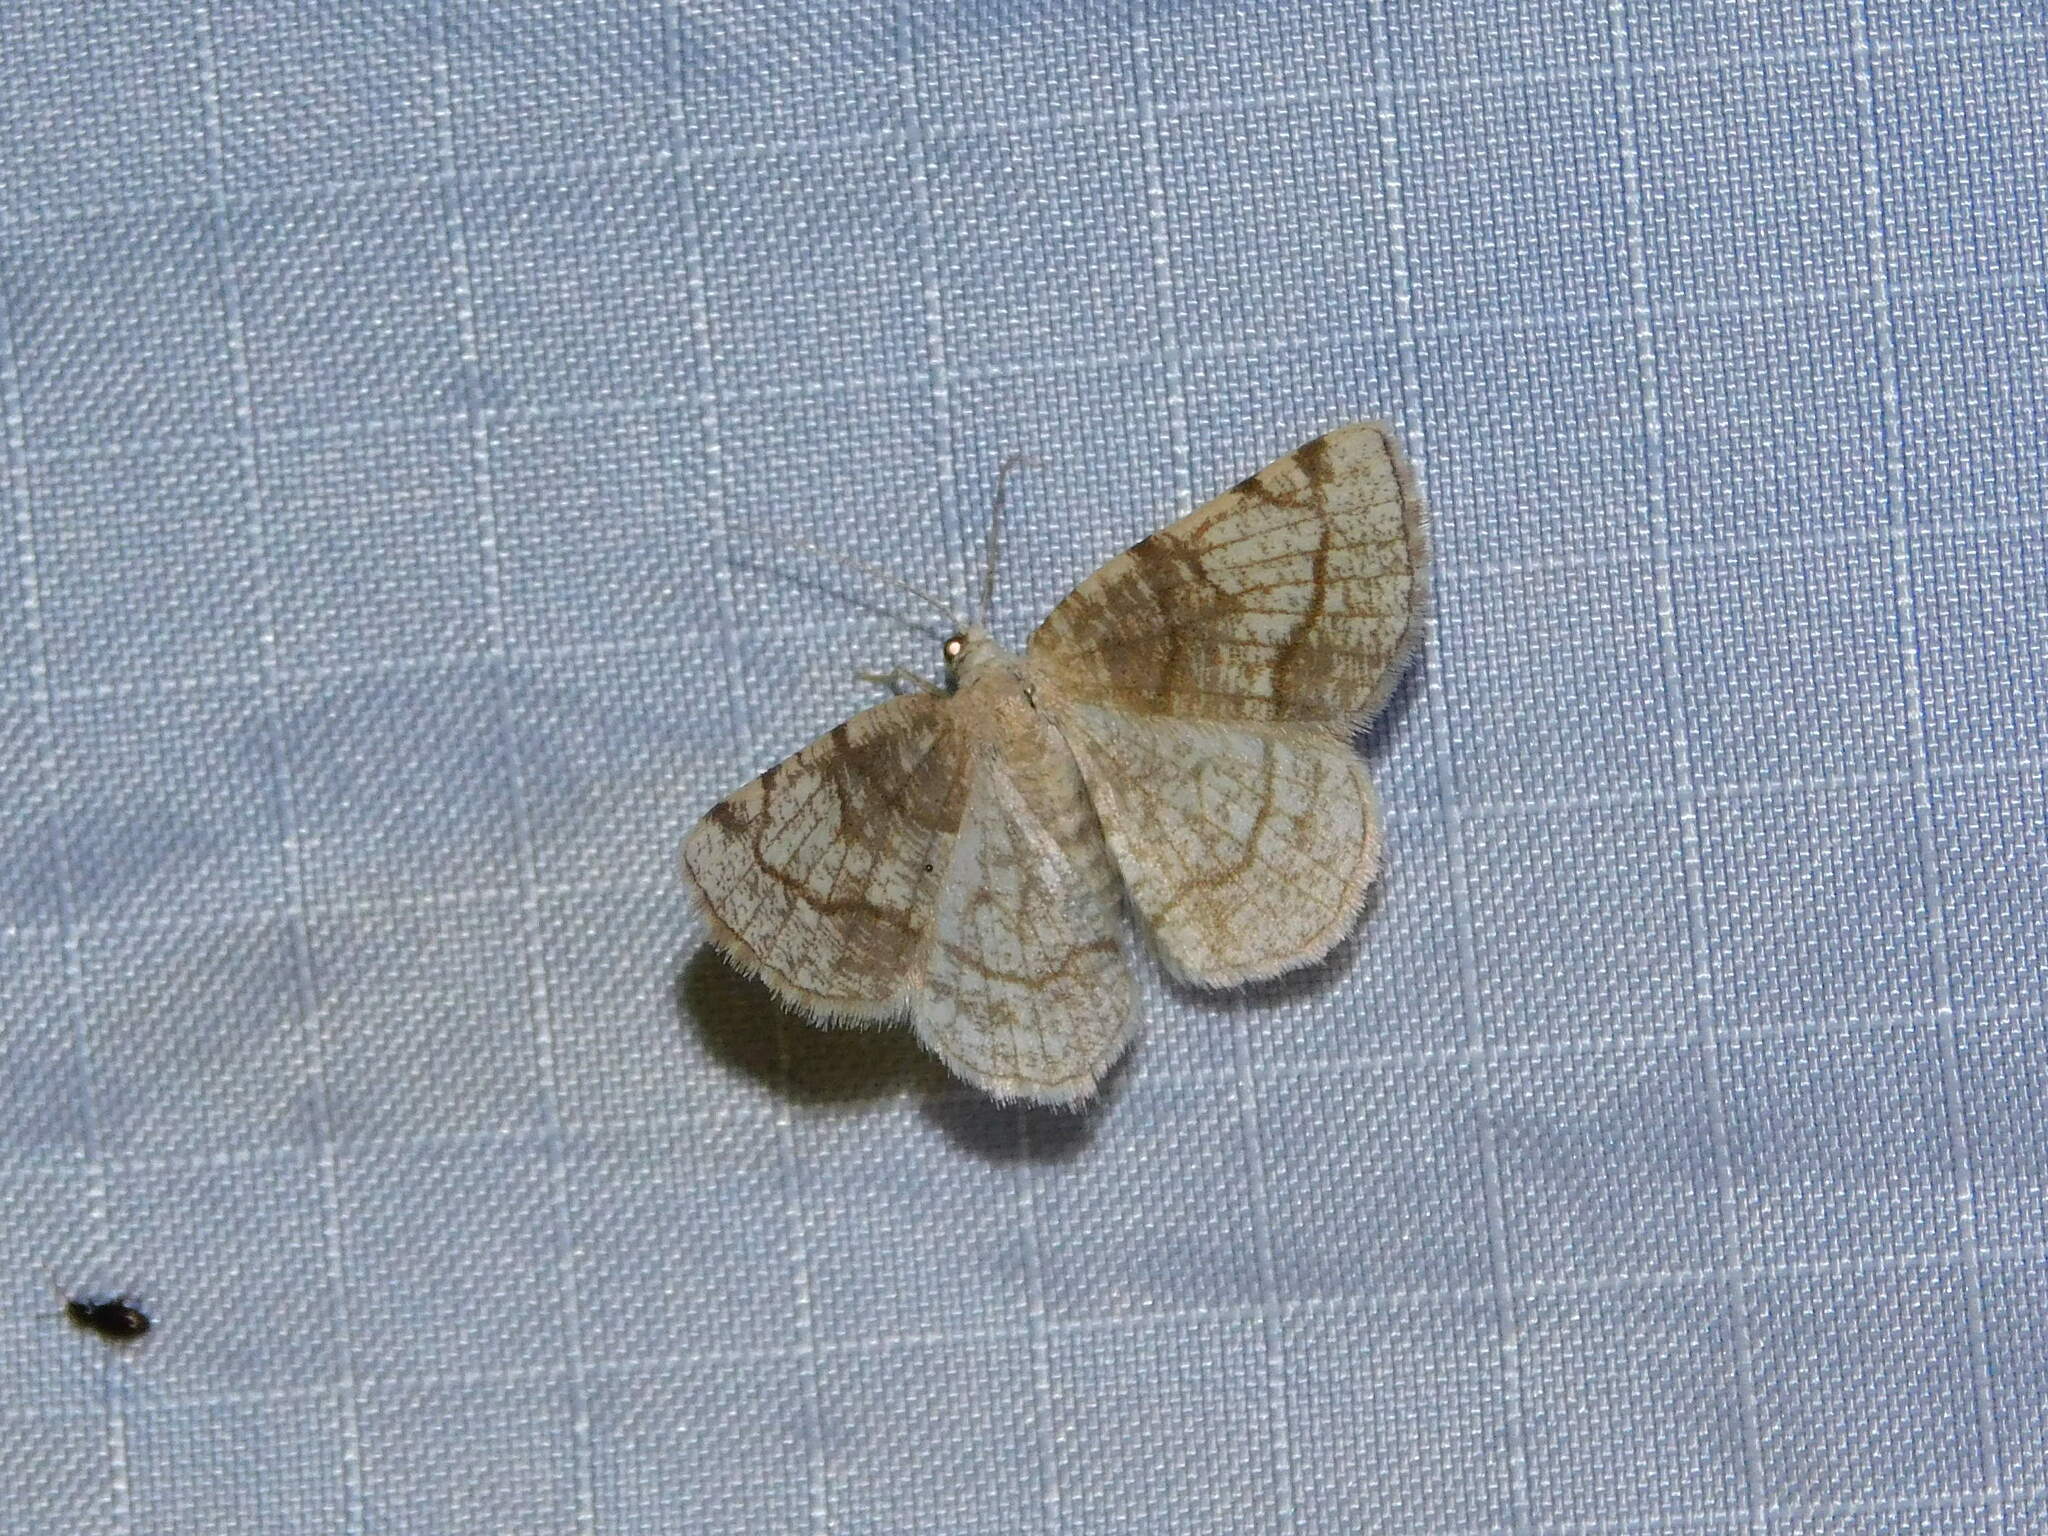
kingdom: Animalia
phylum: Arthropoda
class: Insecta
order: Lepidoptera
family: Geometridae
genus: Stegania
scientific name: Stegania trimaculata
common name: Dorset cream wave
